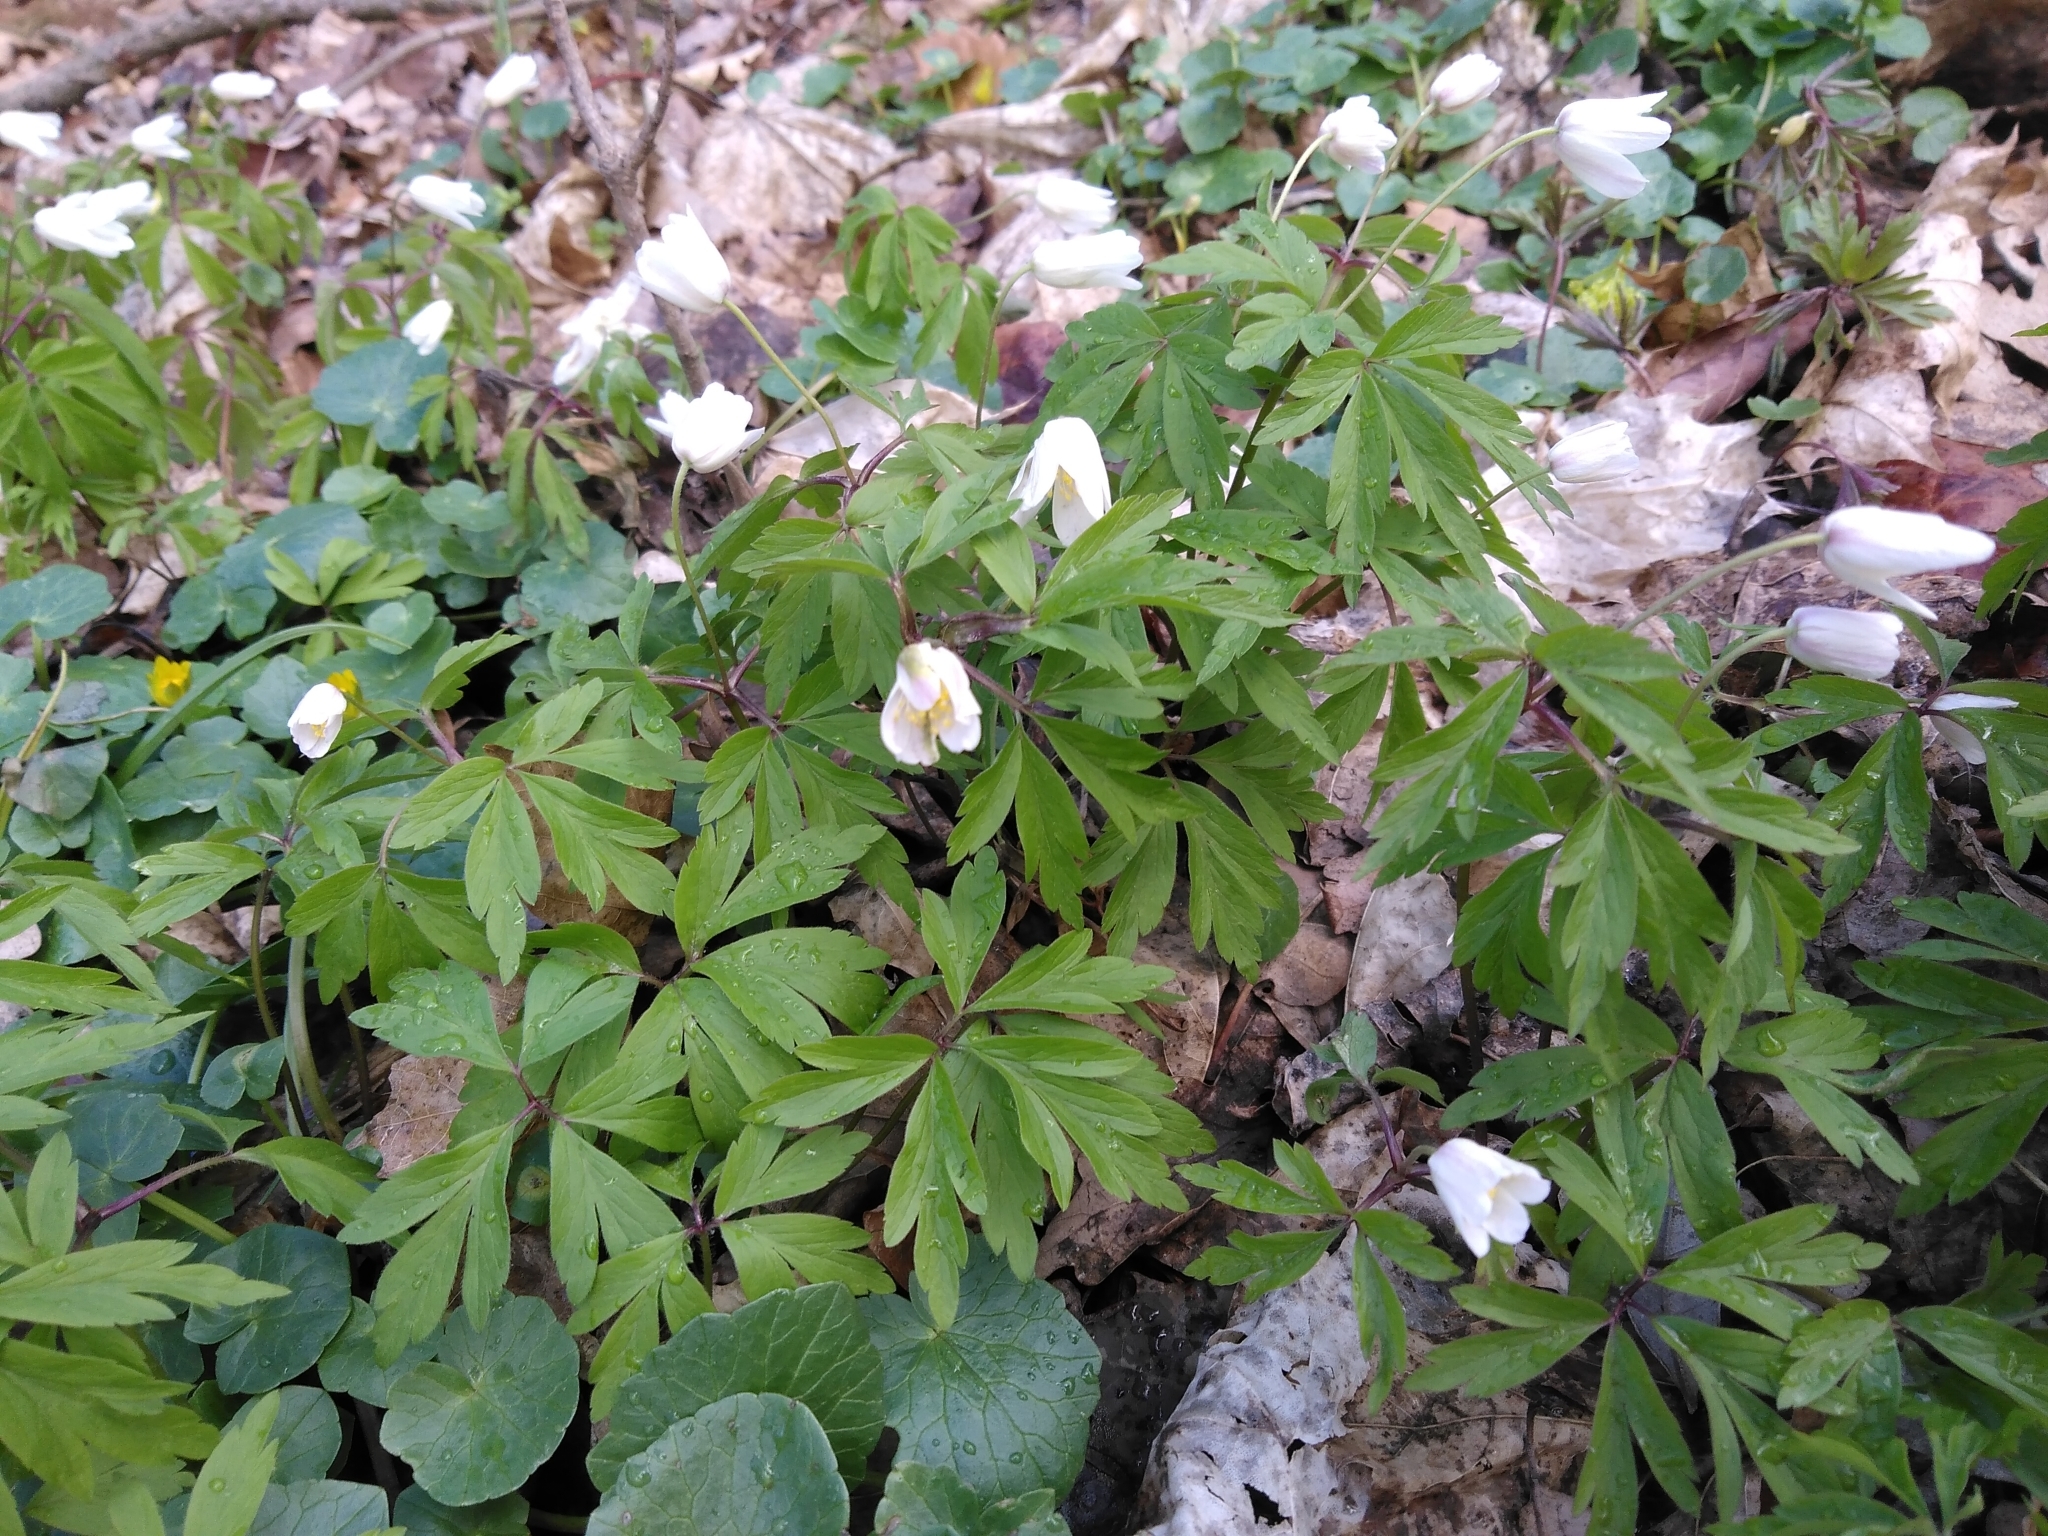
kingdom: Plantae
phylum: Tracheophyta
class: Magnoliopsida
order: Ranunculales
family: Ranunculaceae
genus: Anemone
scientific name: Anemone nemorosa
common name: Wood anemone
